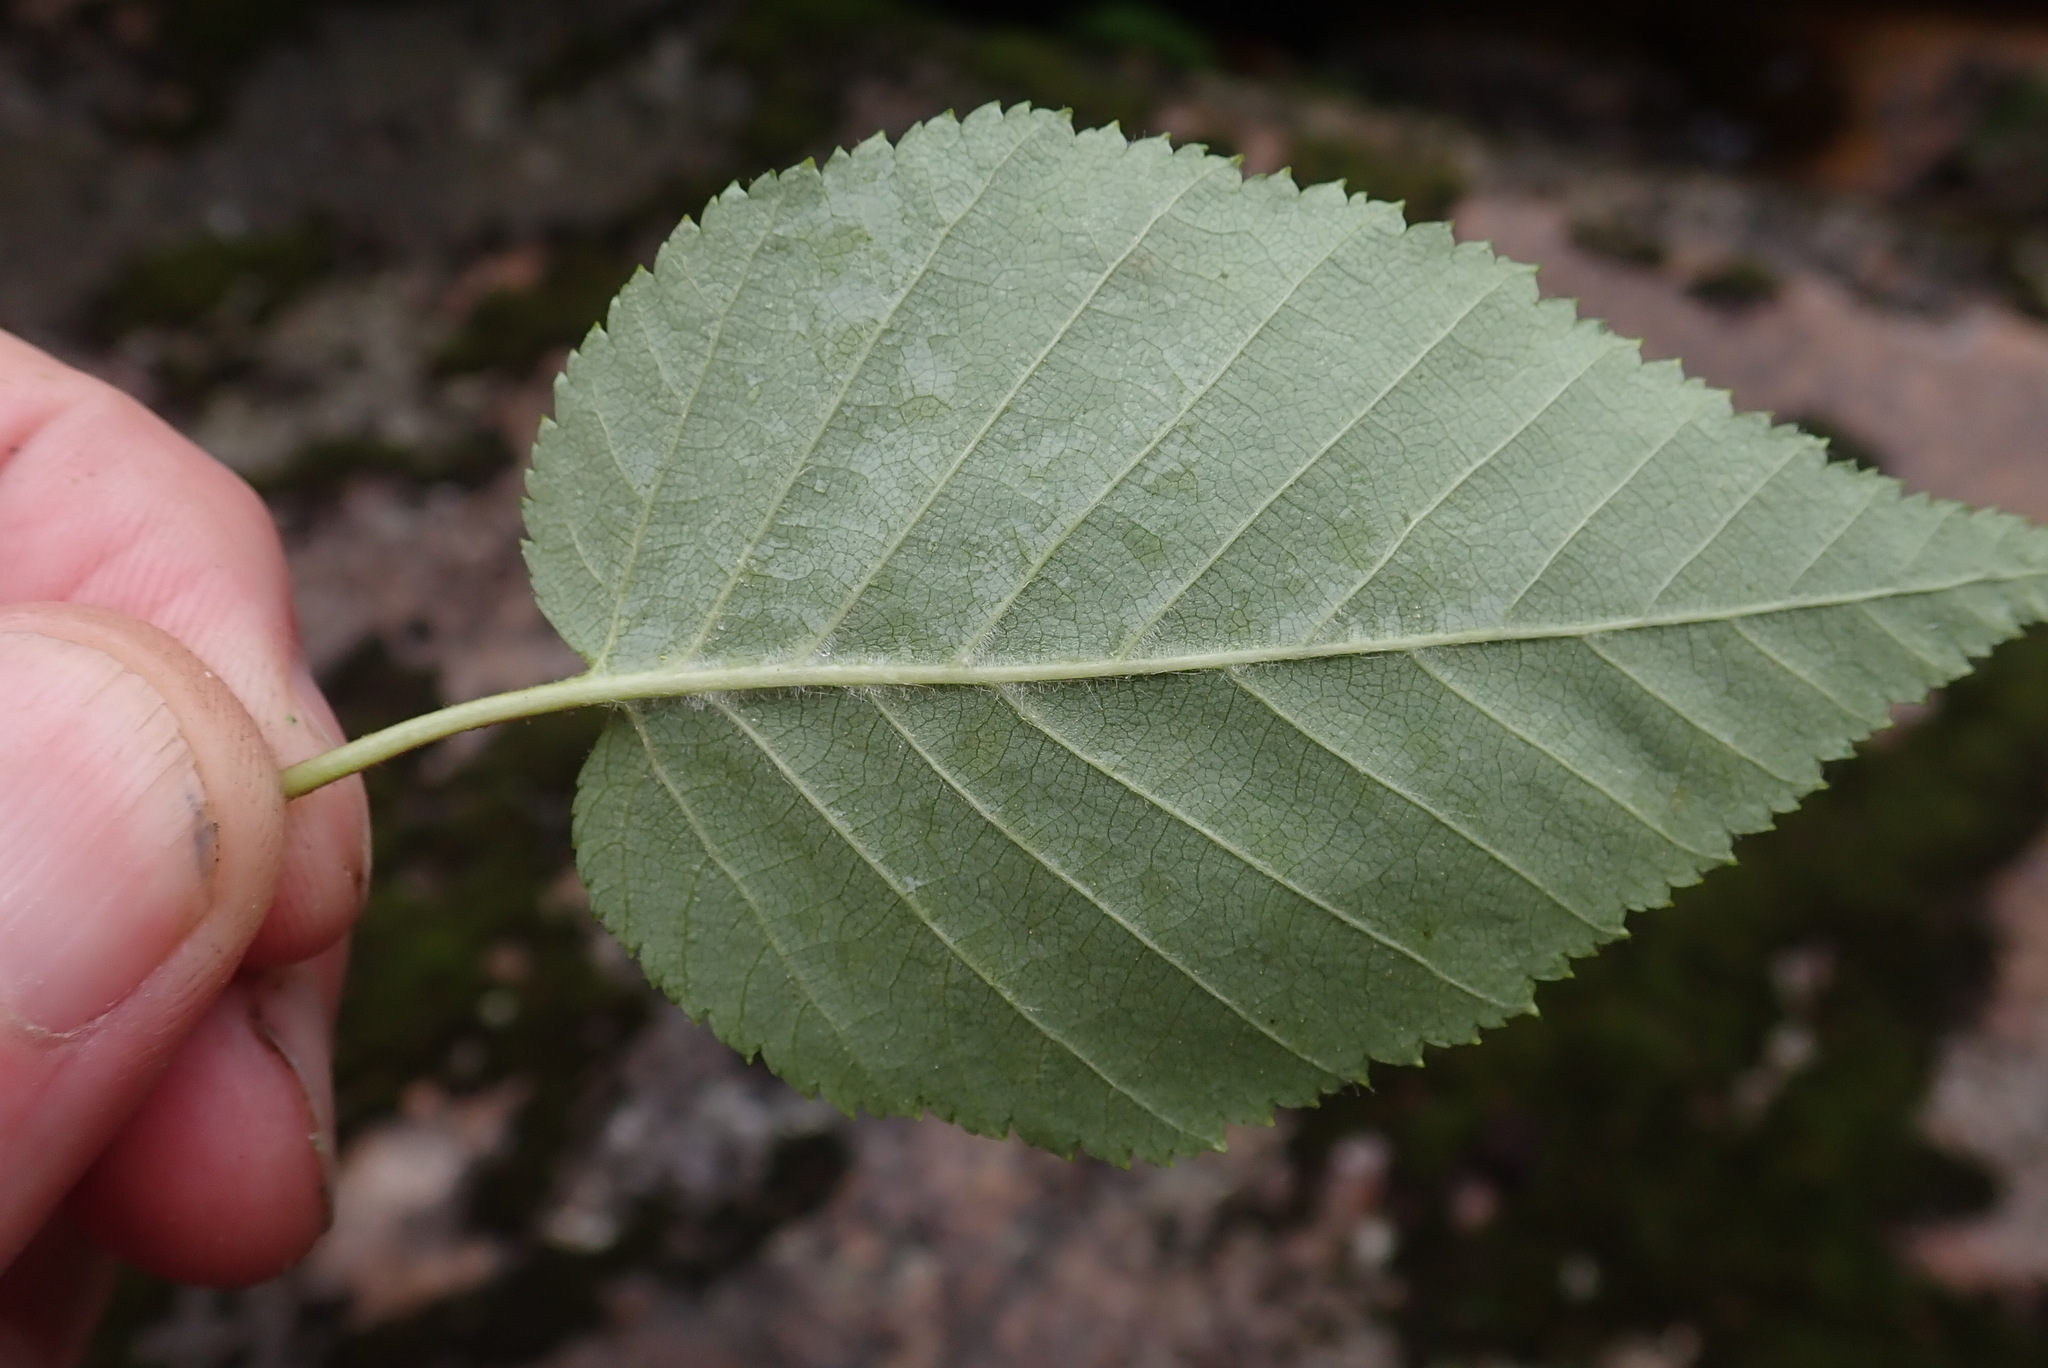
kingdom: Plantae
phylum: Tracheophyta
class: Magnoliopsida
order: Fagales
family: Betulaceae
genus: Betula
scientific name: Betula cordifolia
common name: Mountain white birch
